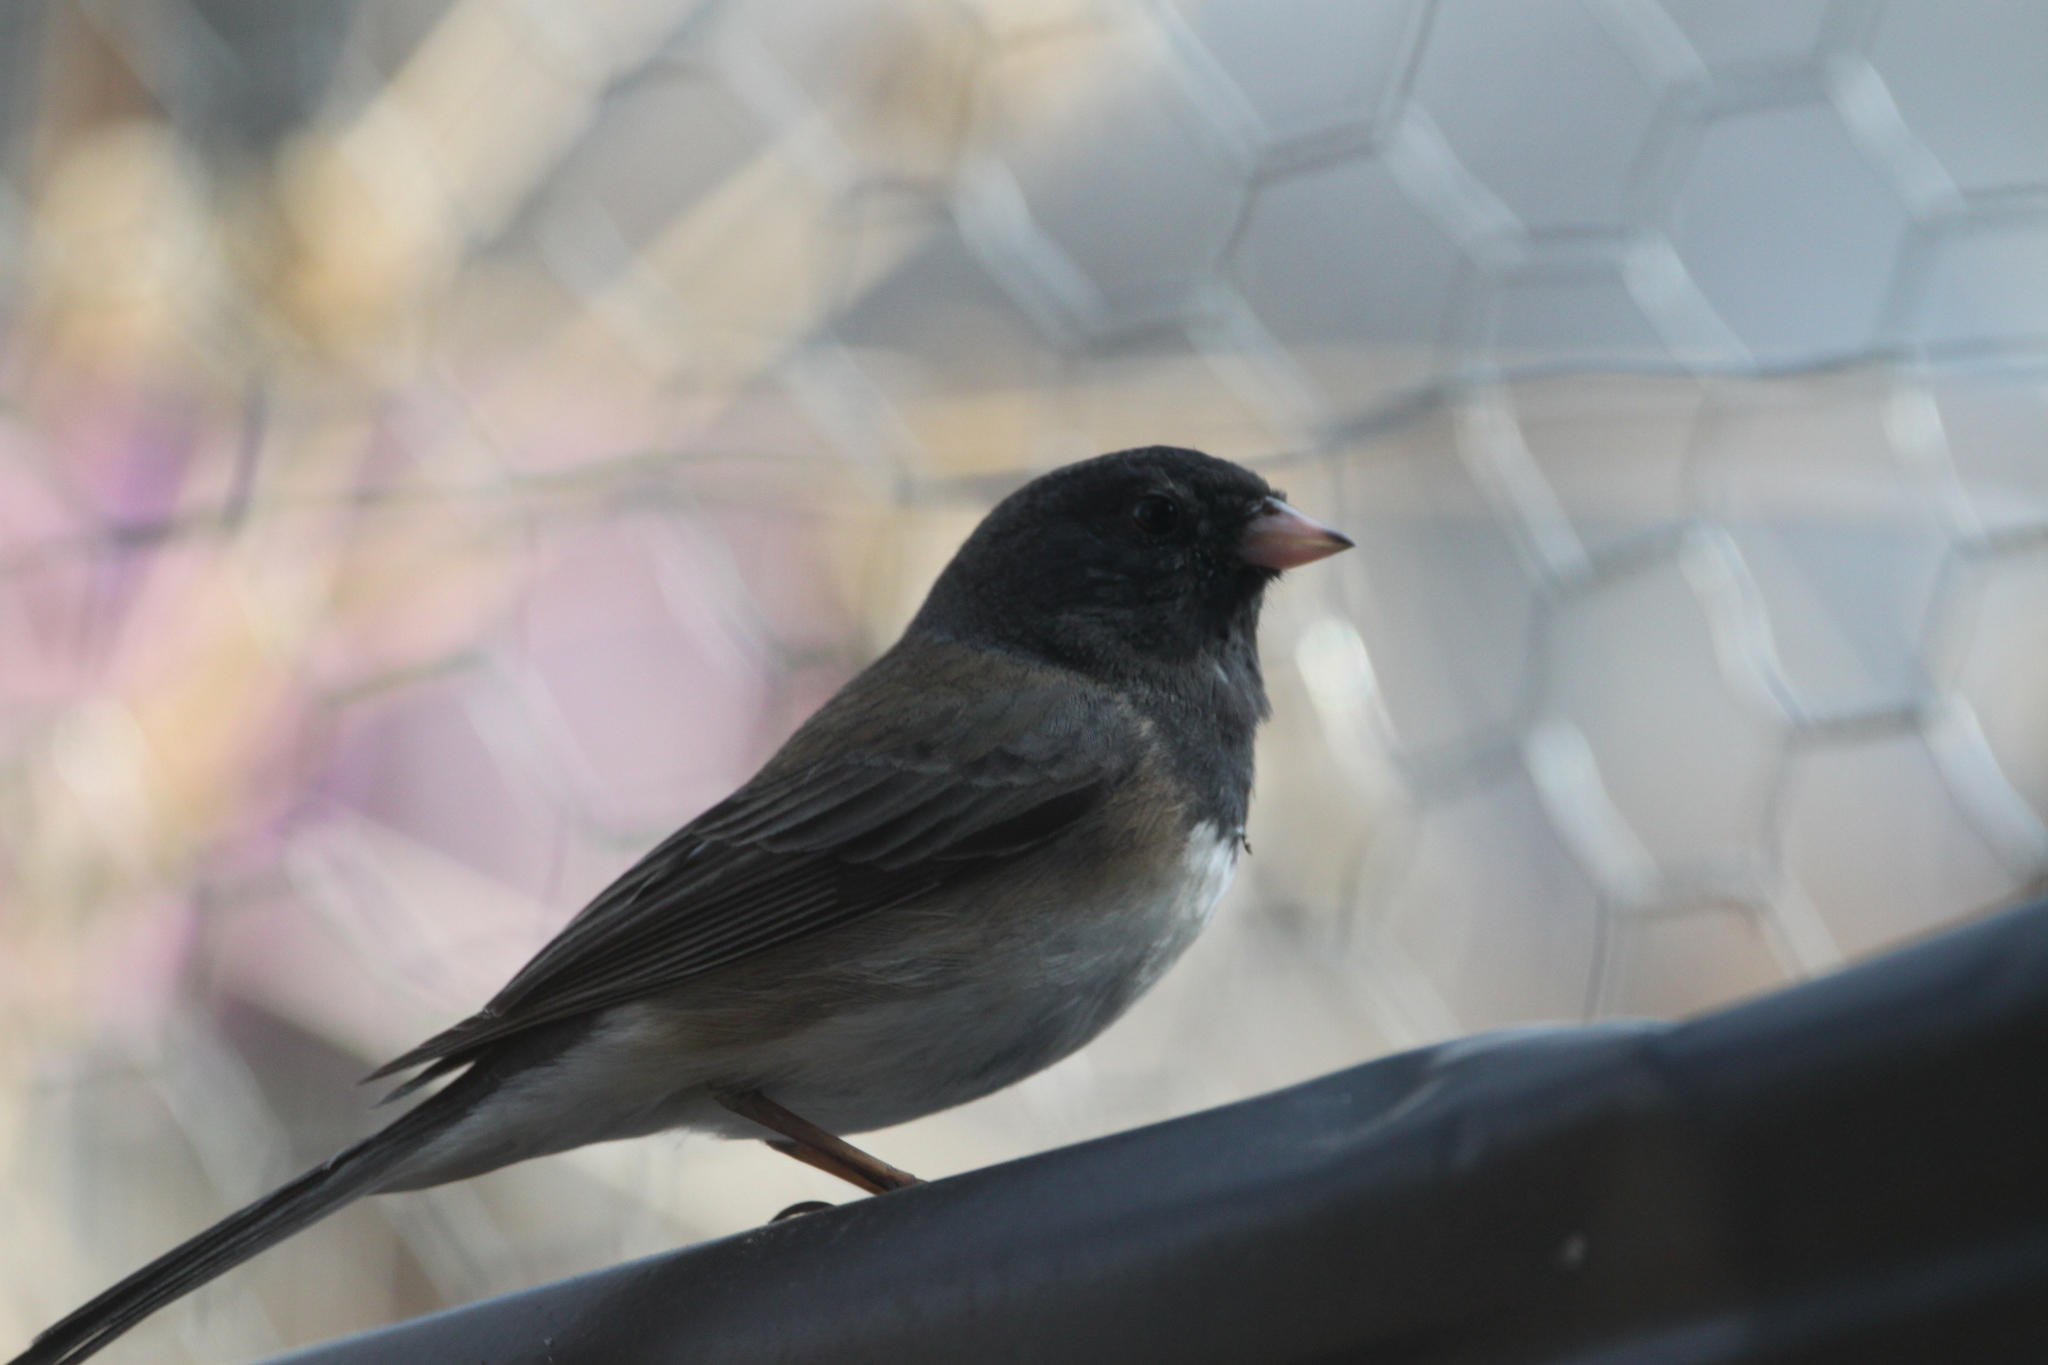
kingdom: Animalia
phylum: Chordata
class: Aves
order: Passeriformes
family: Passerellidae
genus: Junco
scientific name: Junco hyemalis
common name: Dark-eyed junco
